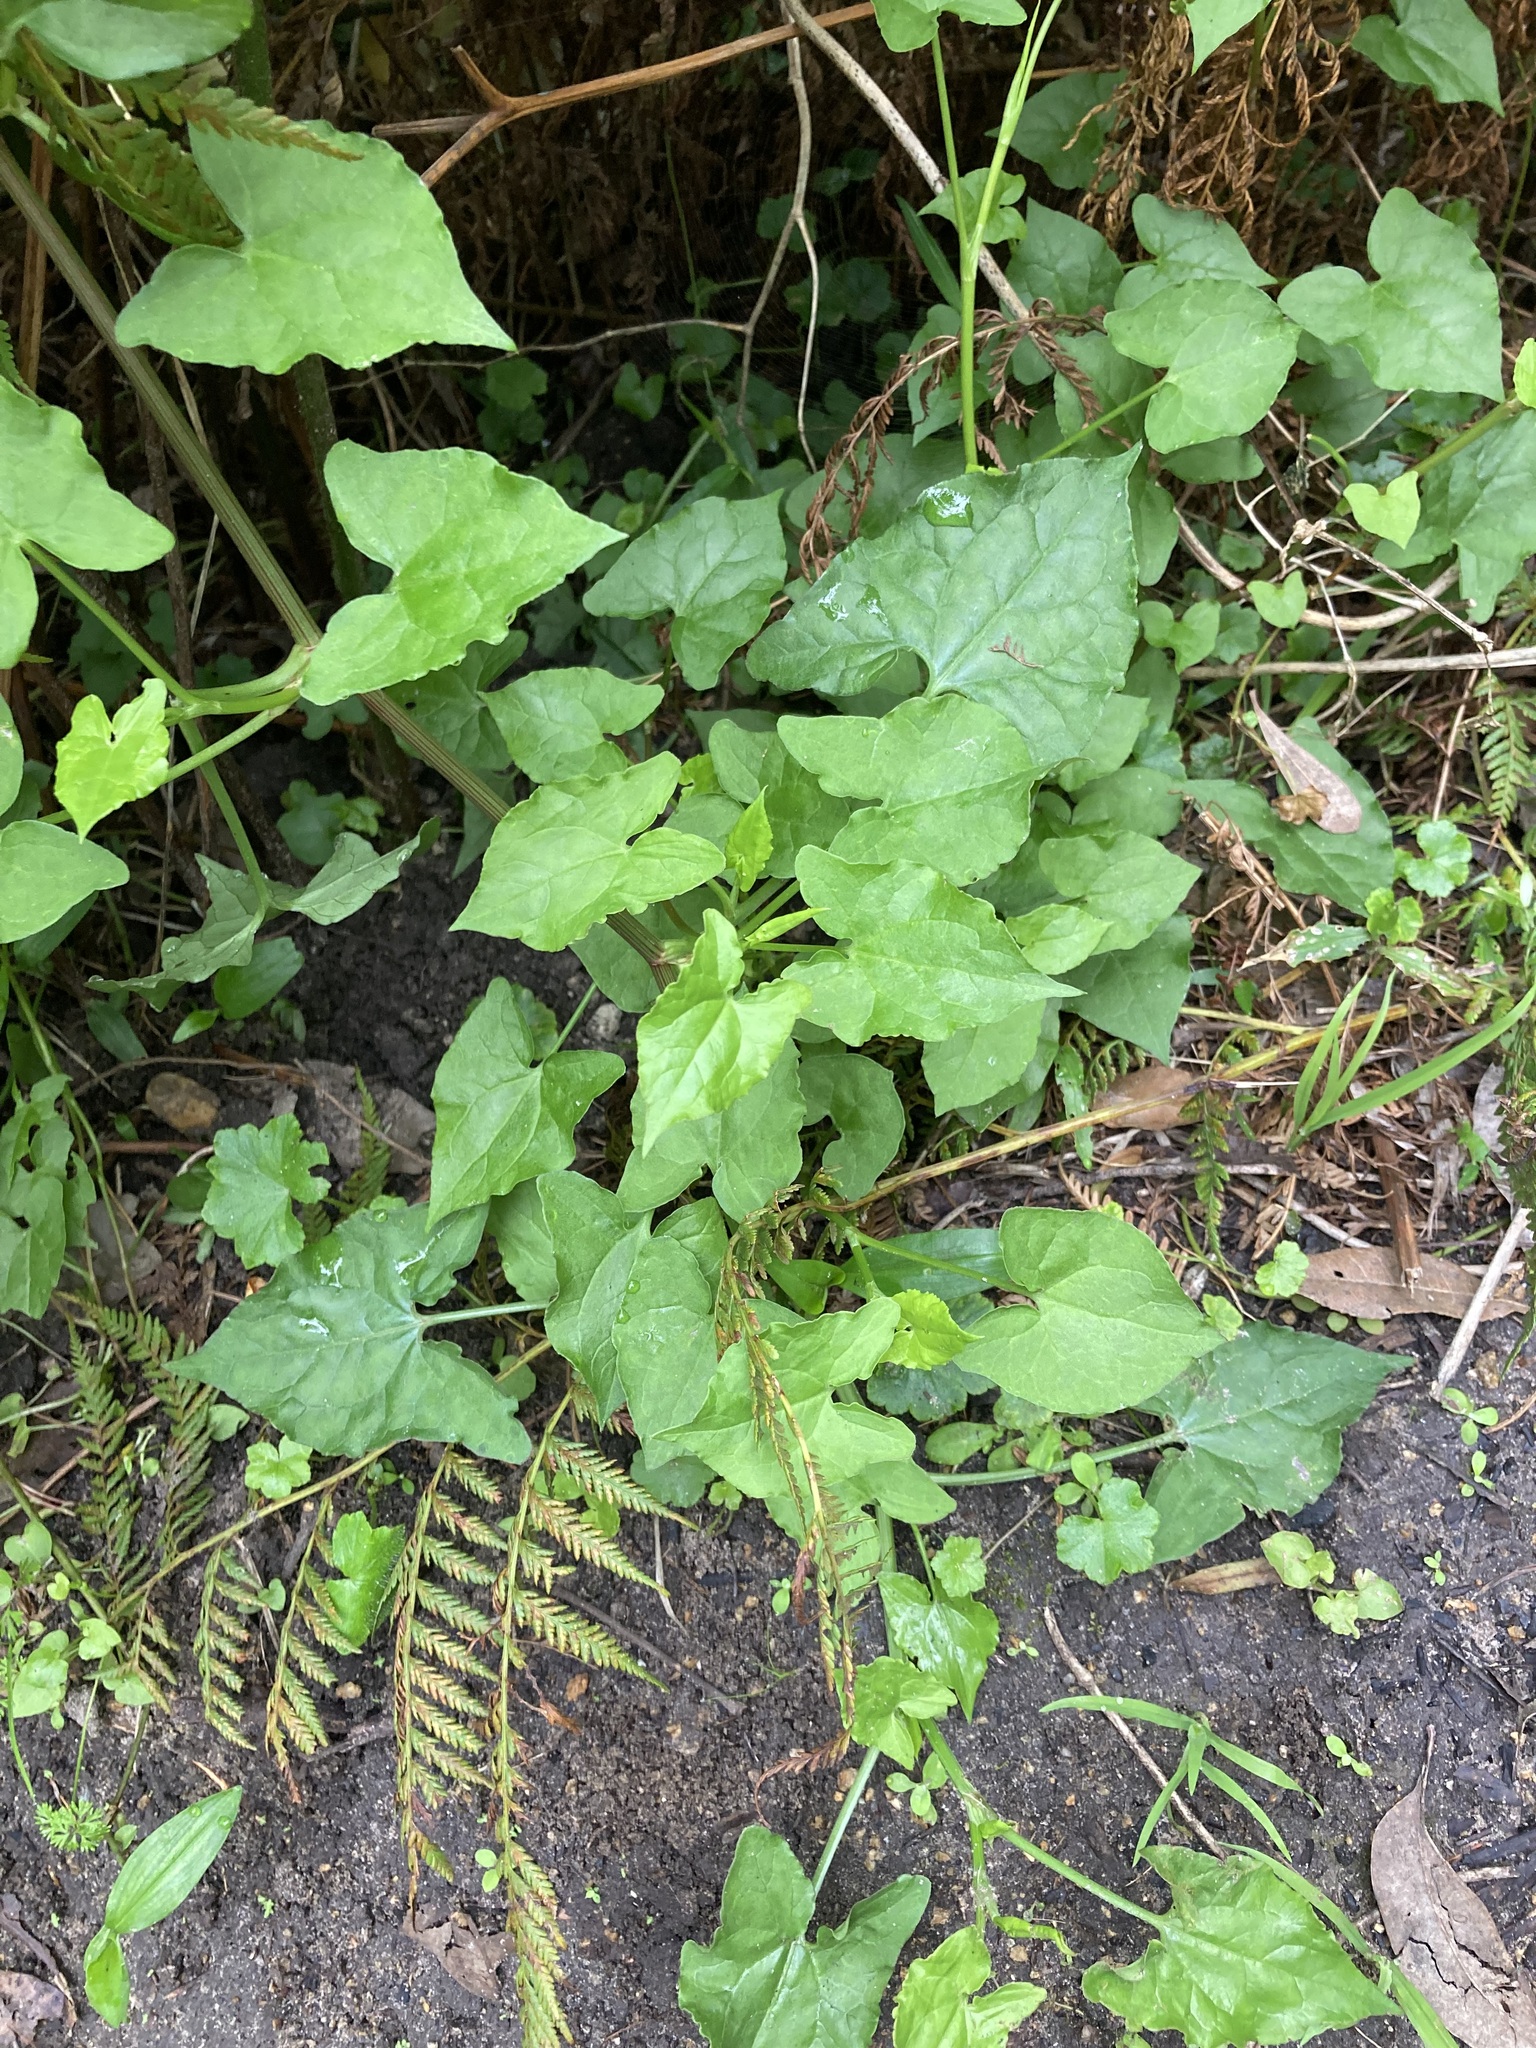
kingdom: Plantae
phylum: Tracheophyta
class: Magnoliopsida
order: Caryophyllales
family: Polygonaceae
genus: Rumex
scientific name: Rumex sagittatus
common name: Climbing dock
